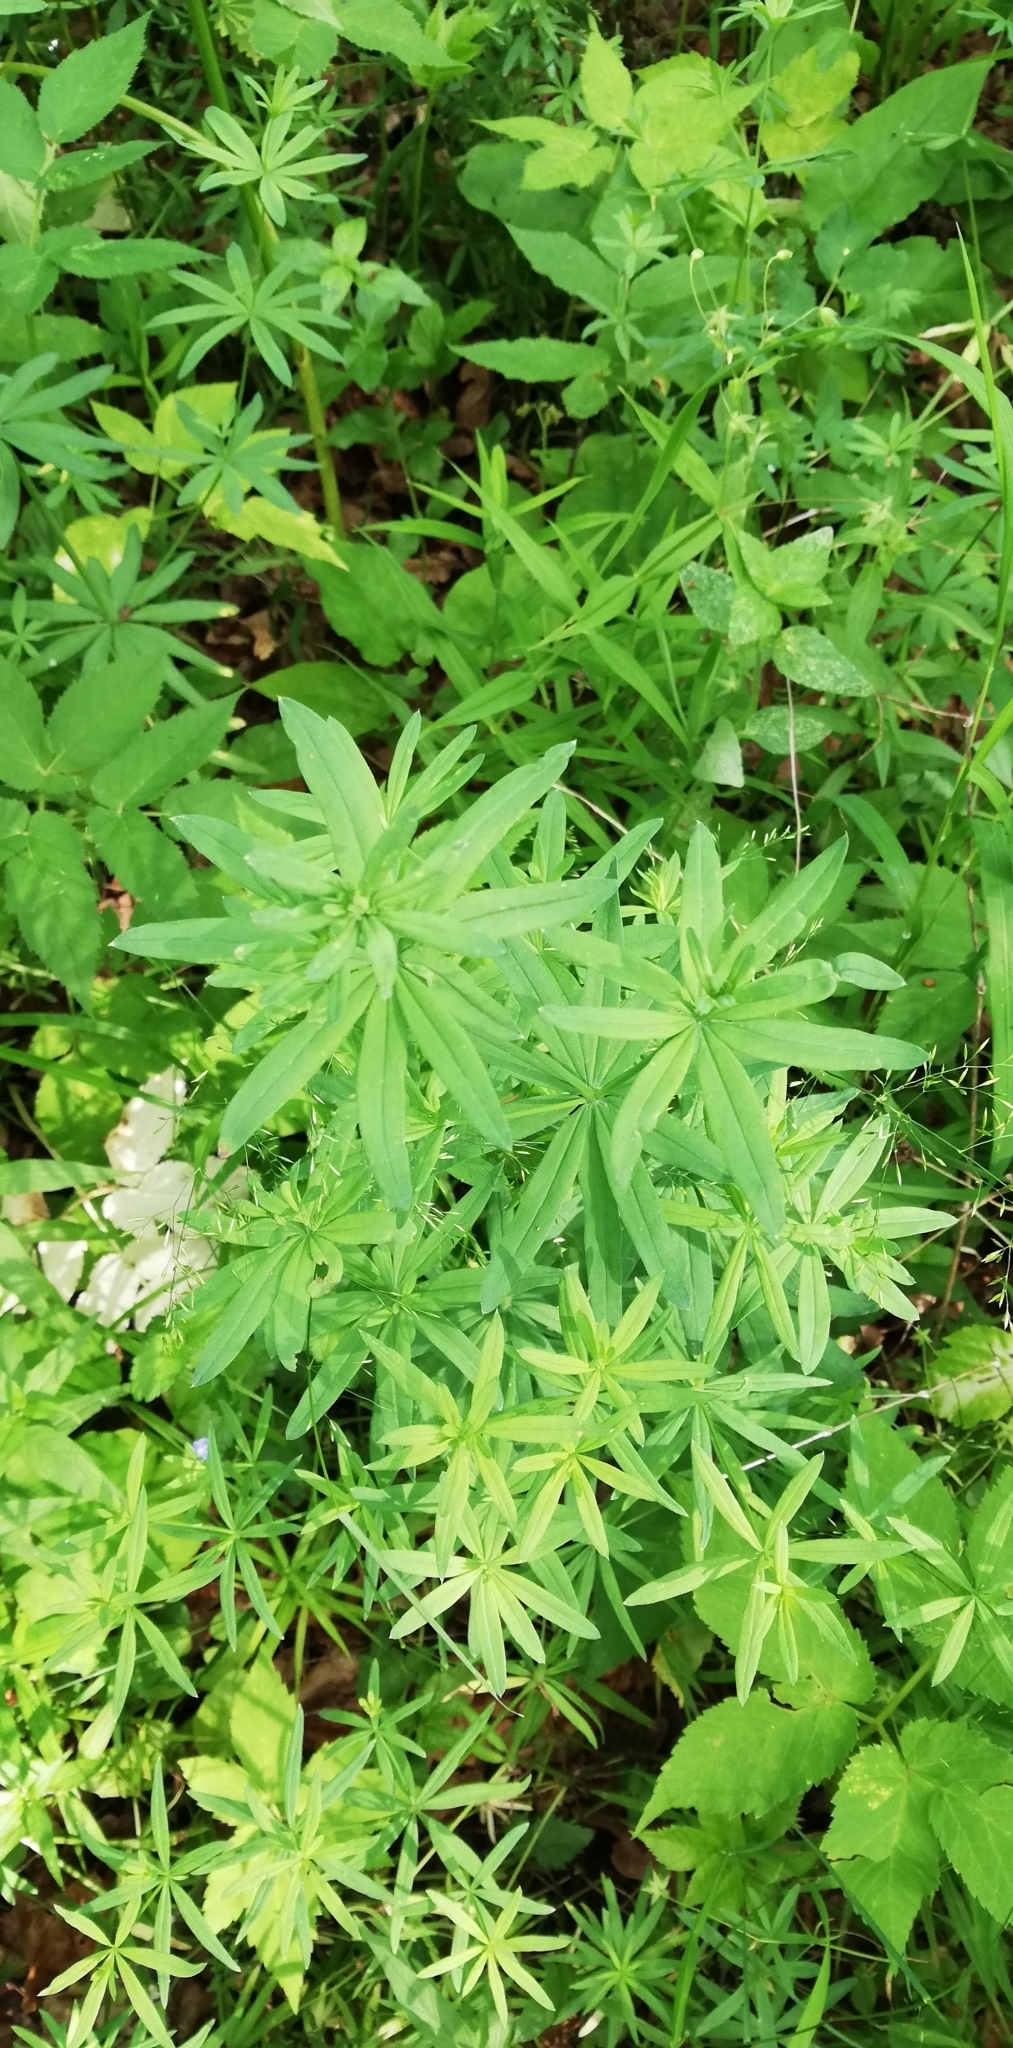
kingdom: Plantae
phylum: Tracheophyta
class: Magnoliopsida
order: Gentianales
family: Rubiaceae
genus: Galium
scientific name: Galium intermedium
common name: Bedstraw
